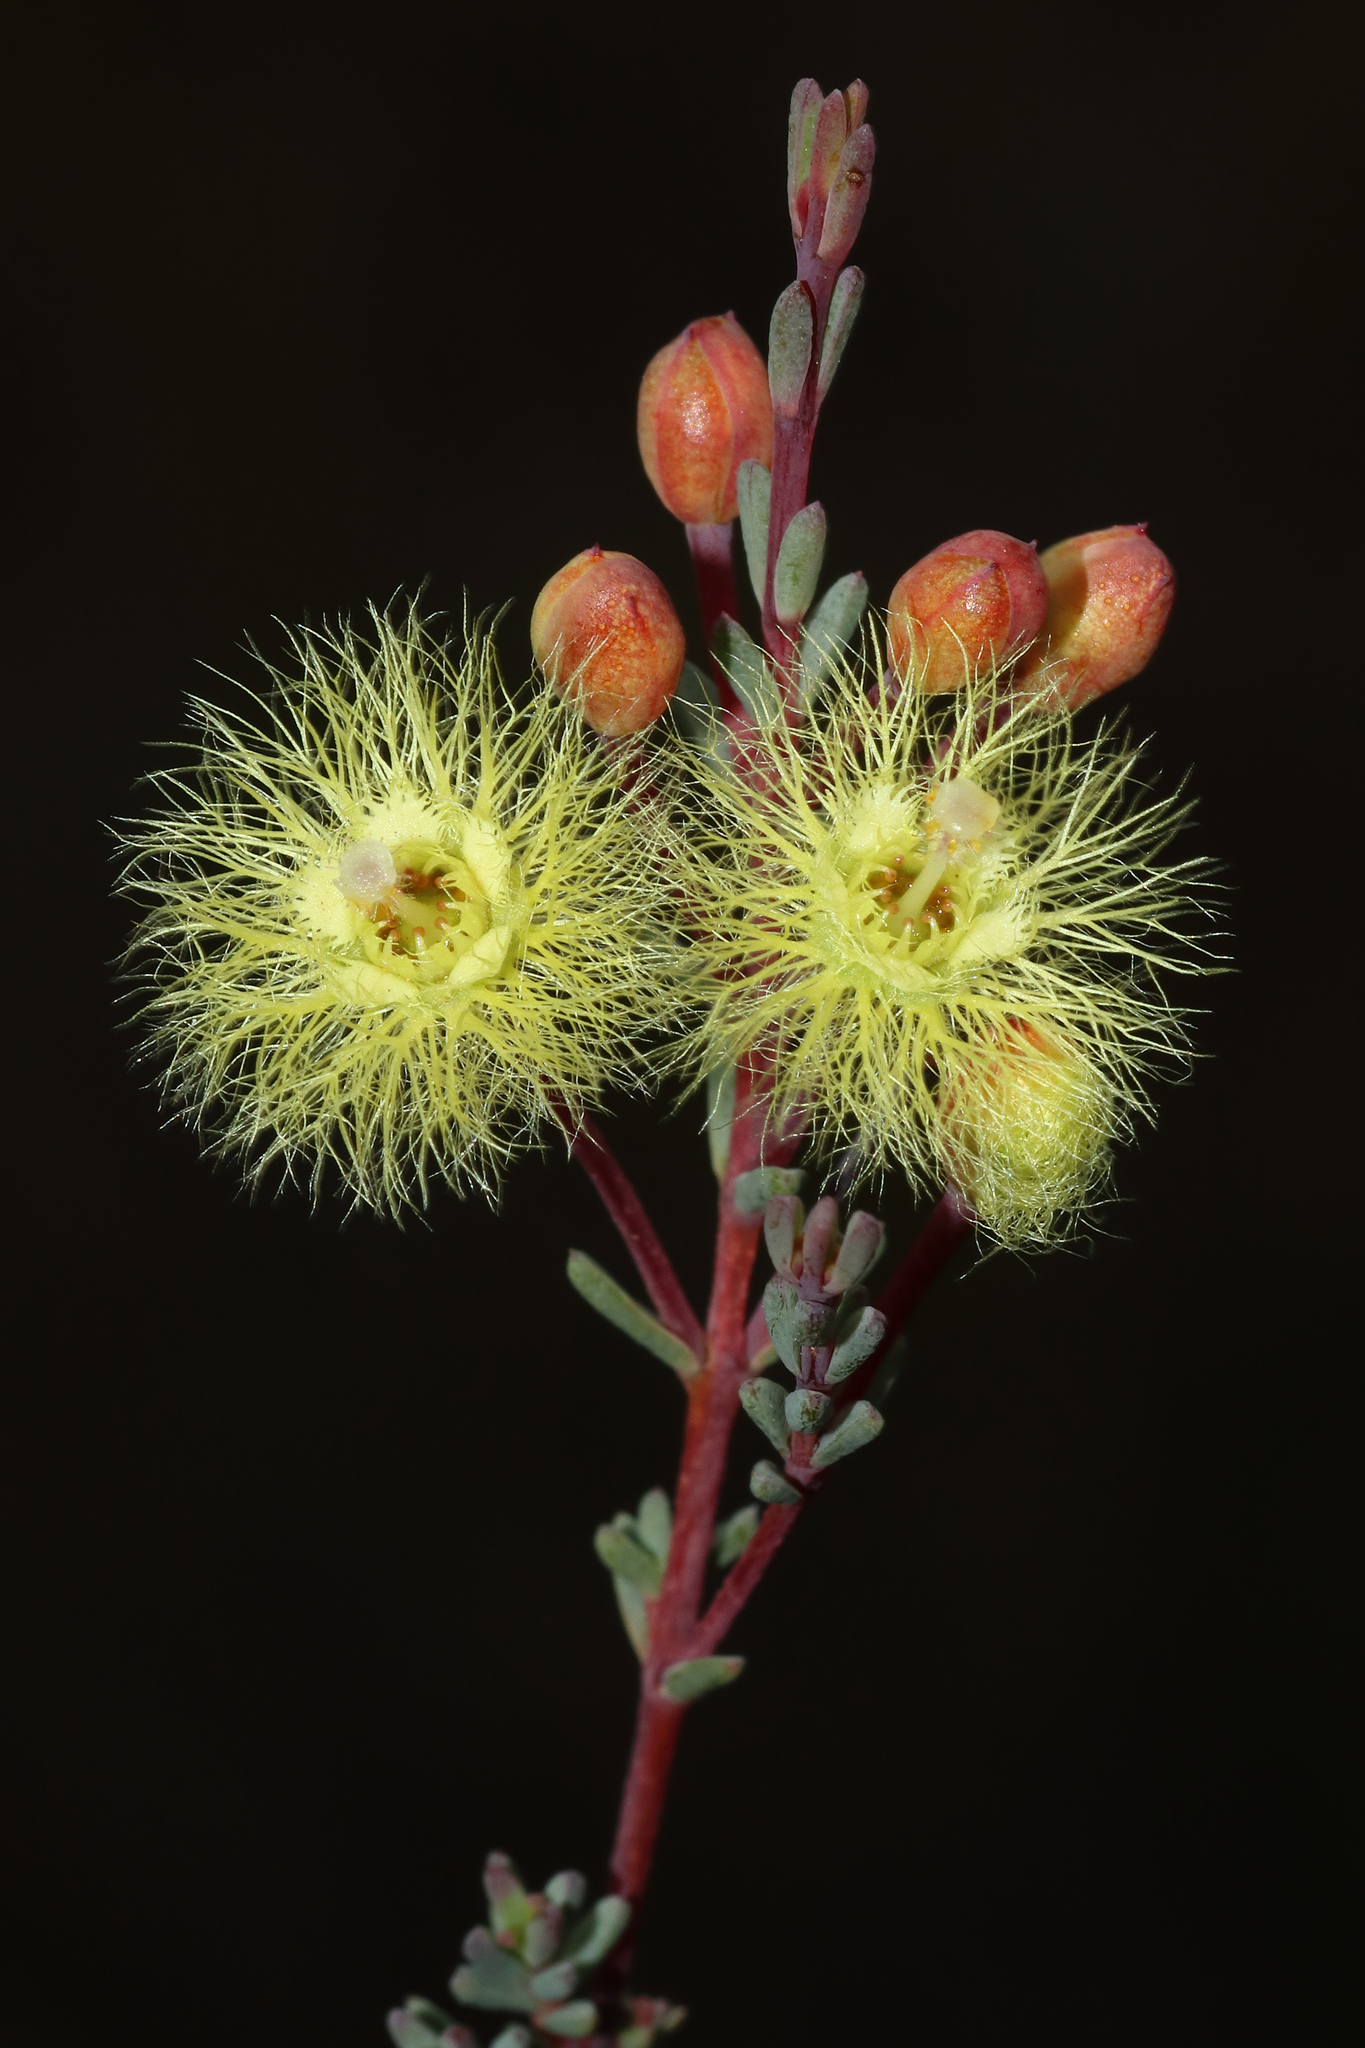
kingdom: Plantae
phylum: Tracheophyta
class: Magnoliopsida
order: Myrtales
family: Myrtaceae
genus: Verticordia
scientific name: Verticordia huegelii
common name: Variegate feather-flower
